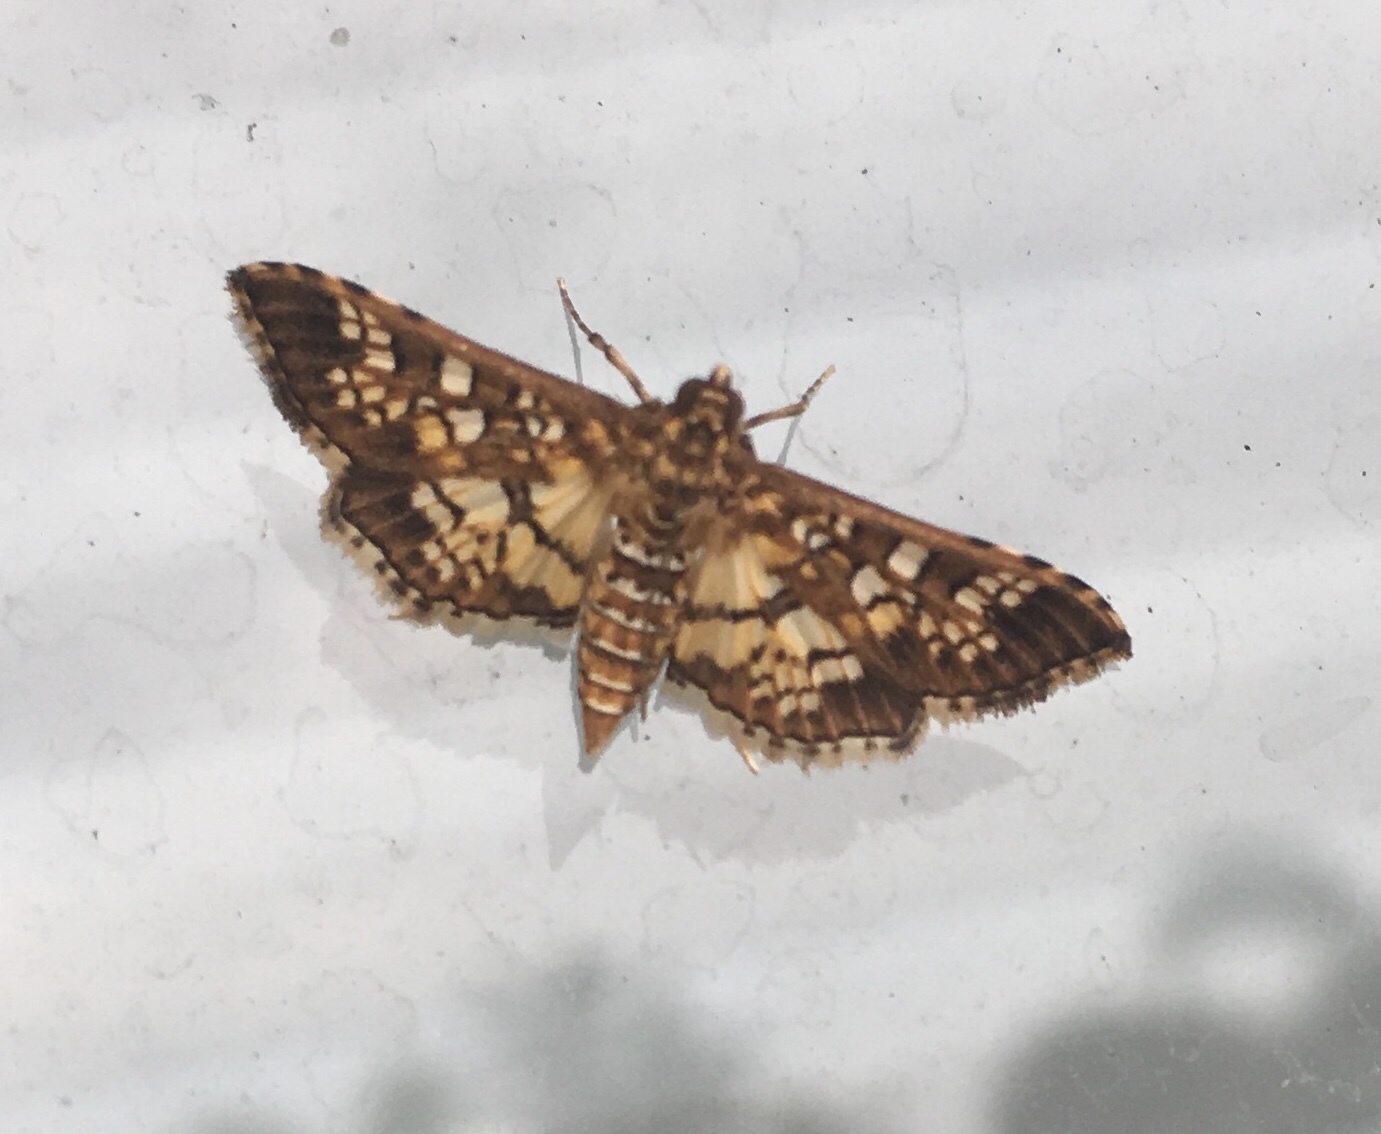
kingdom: Animalia
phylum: Arthropoda
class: Insecta
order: Lepidoptera
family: Crambidae
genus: Samea
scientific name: Samea ecclesialis
